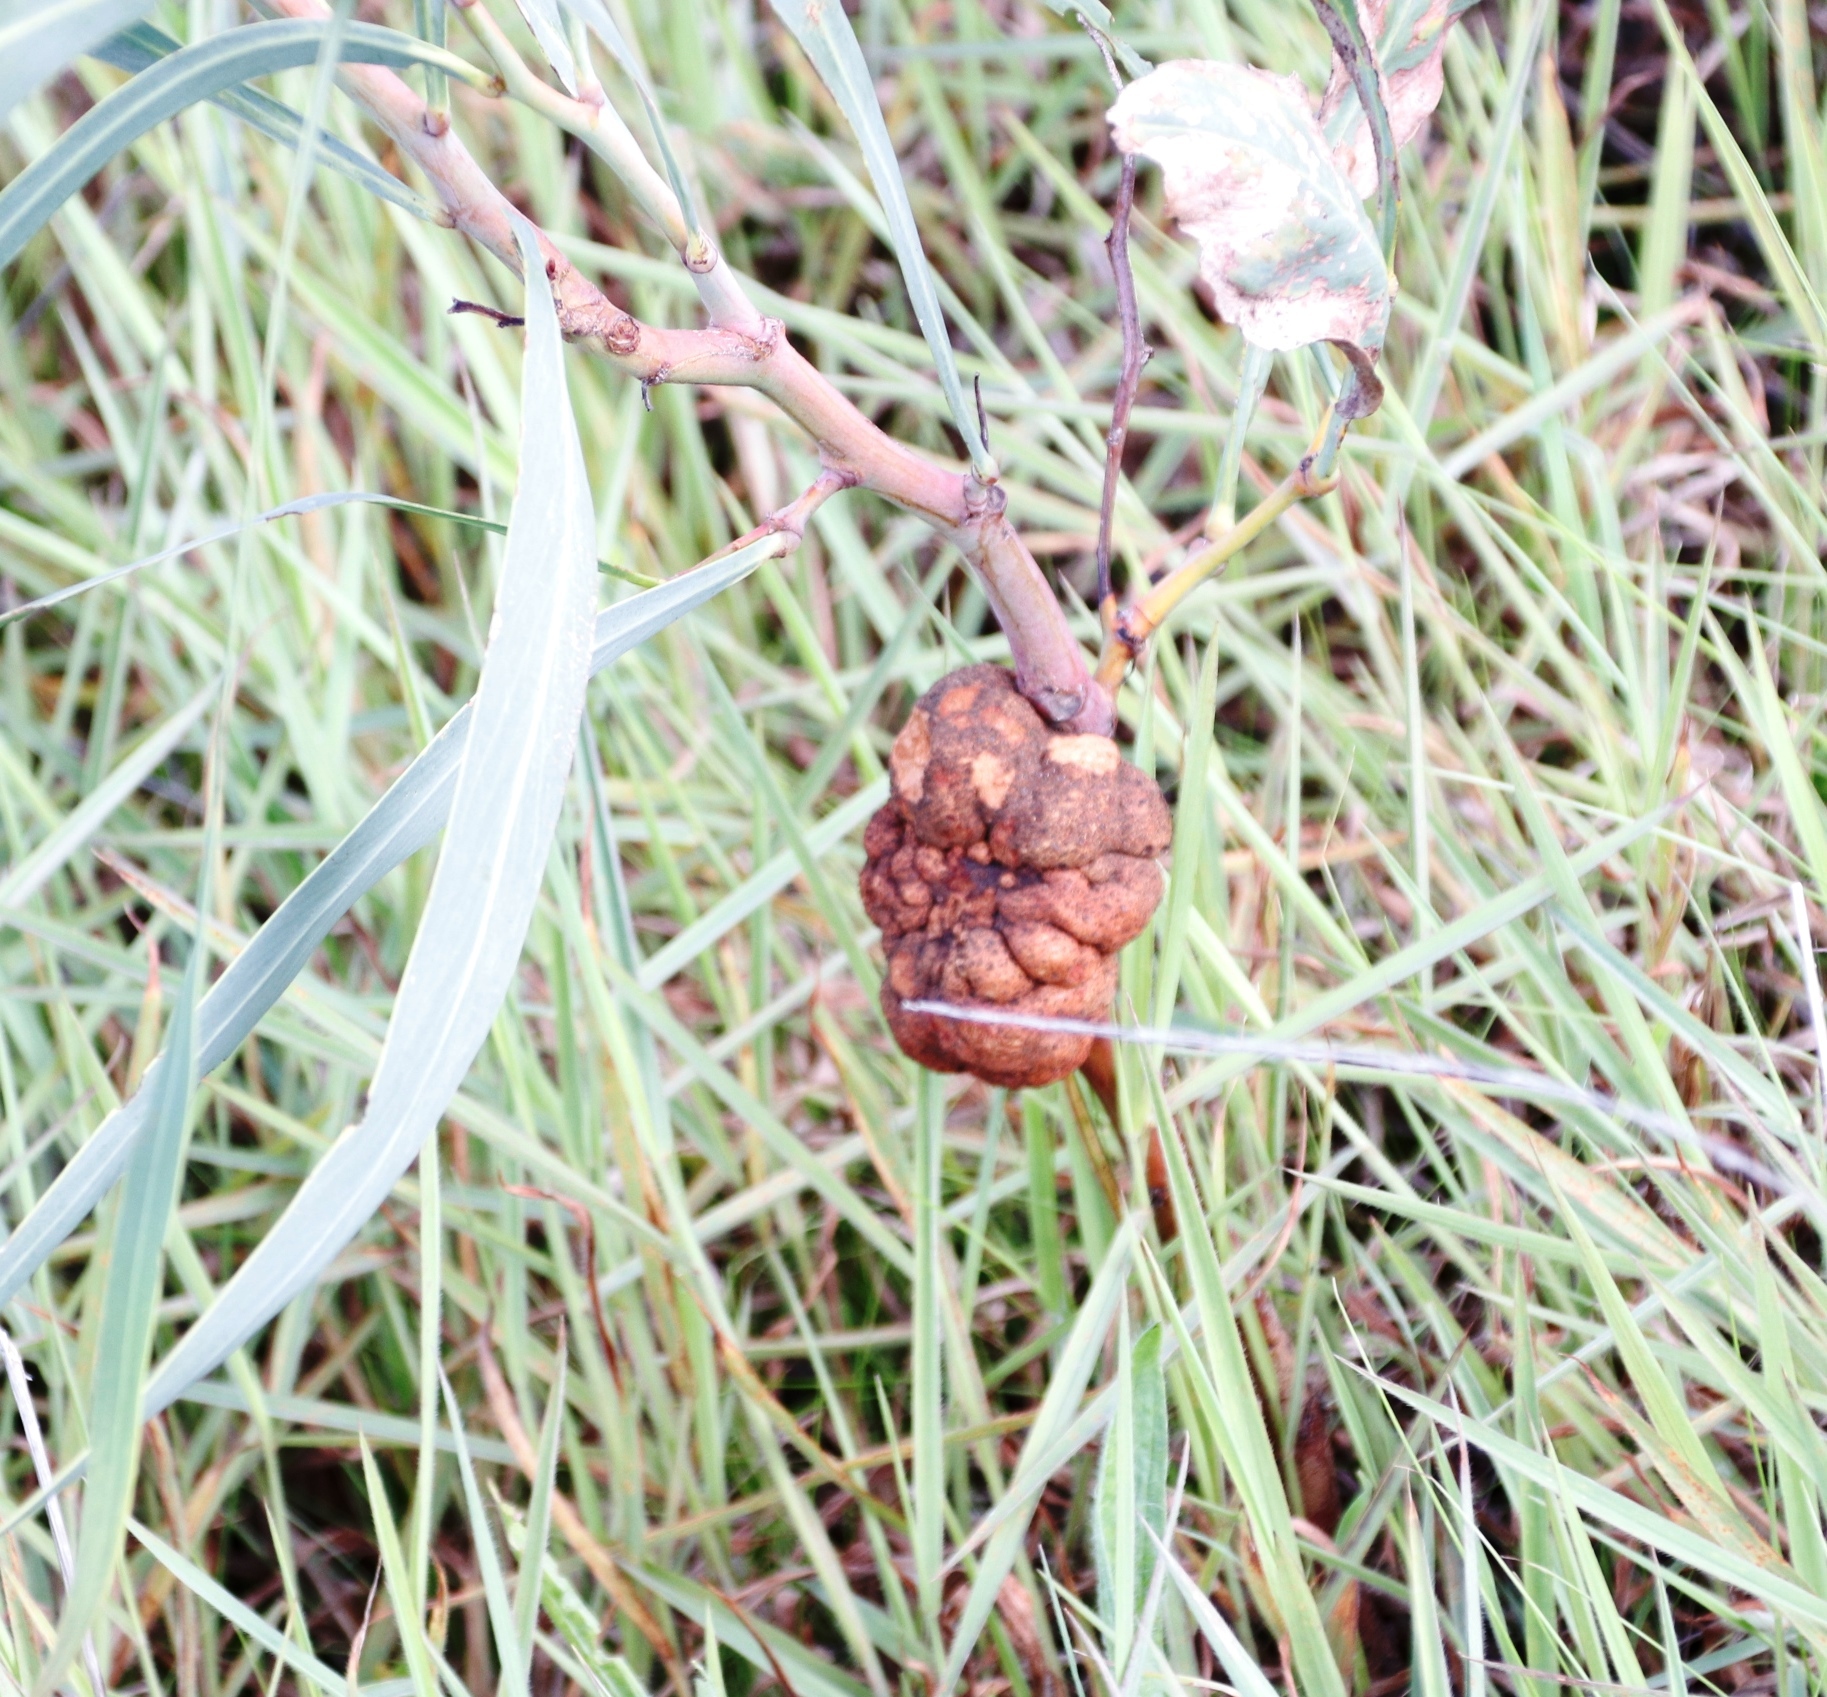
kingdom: Fungi
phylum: Basidiomycota
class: Pucciniomycetes
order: Pucciniales
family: Uromycladiaceae
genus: Uromycladium
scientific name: Uromycladium morrisii
